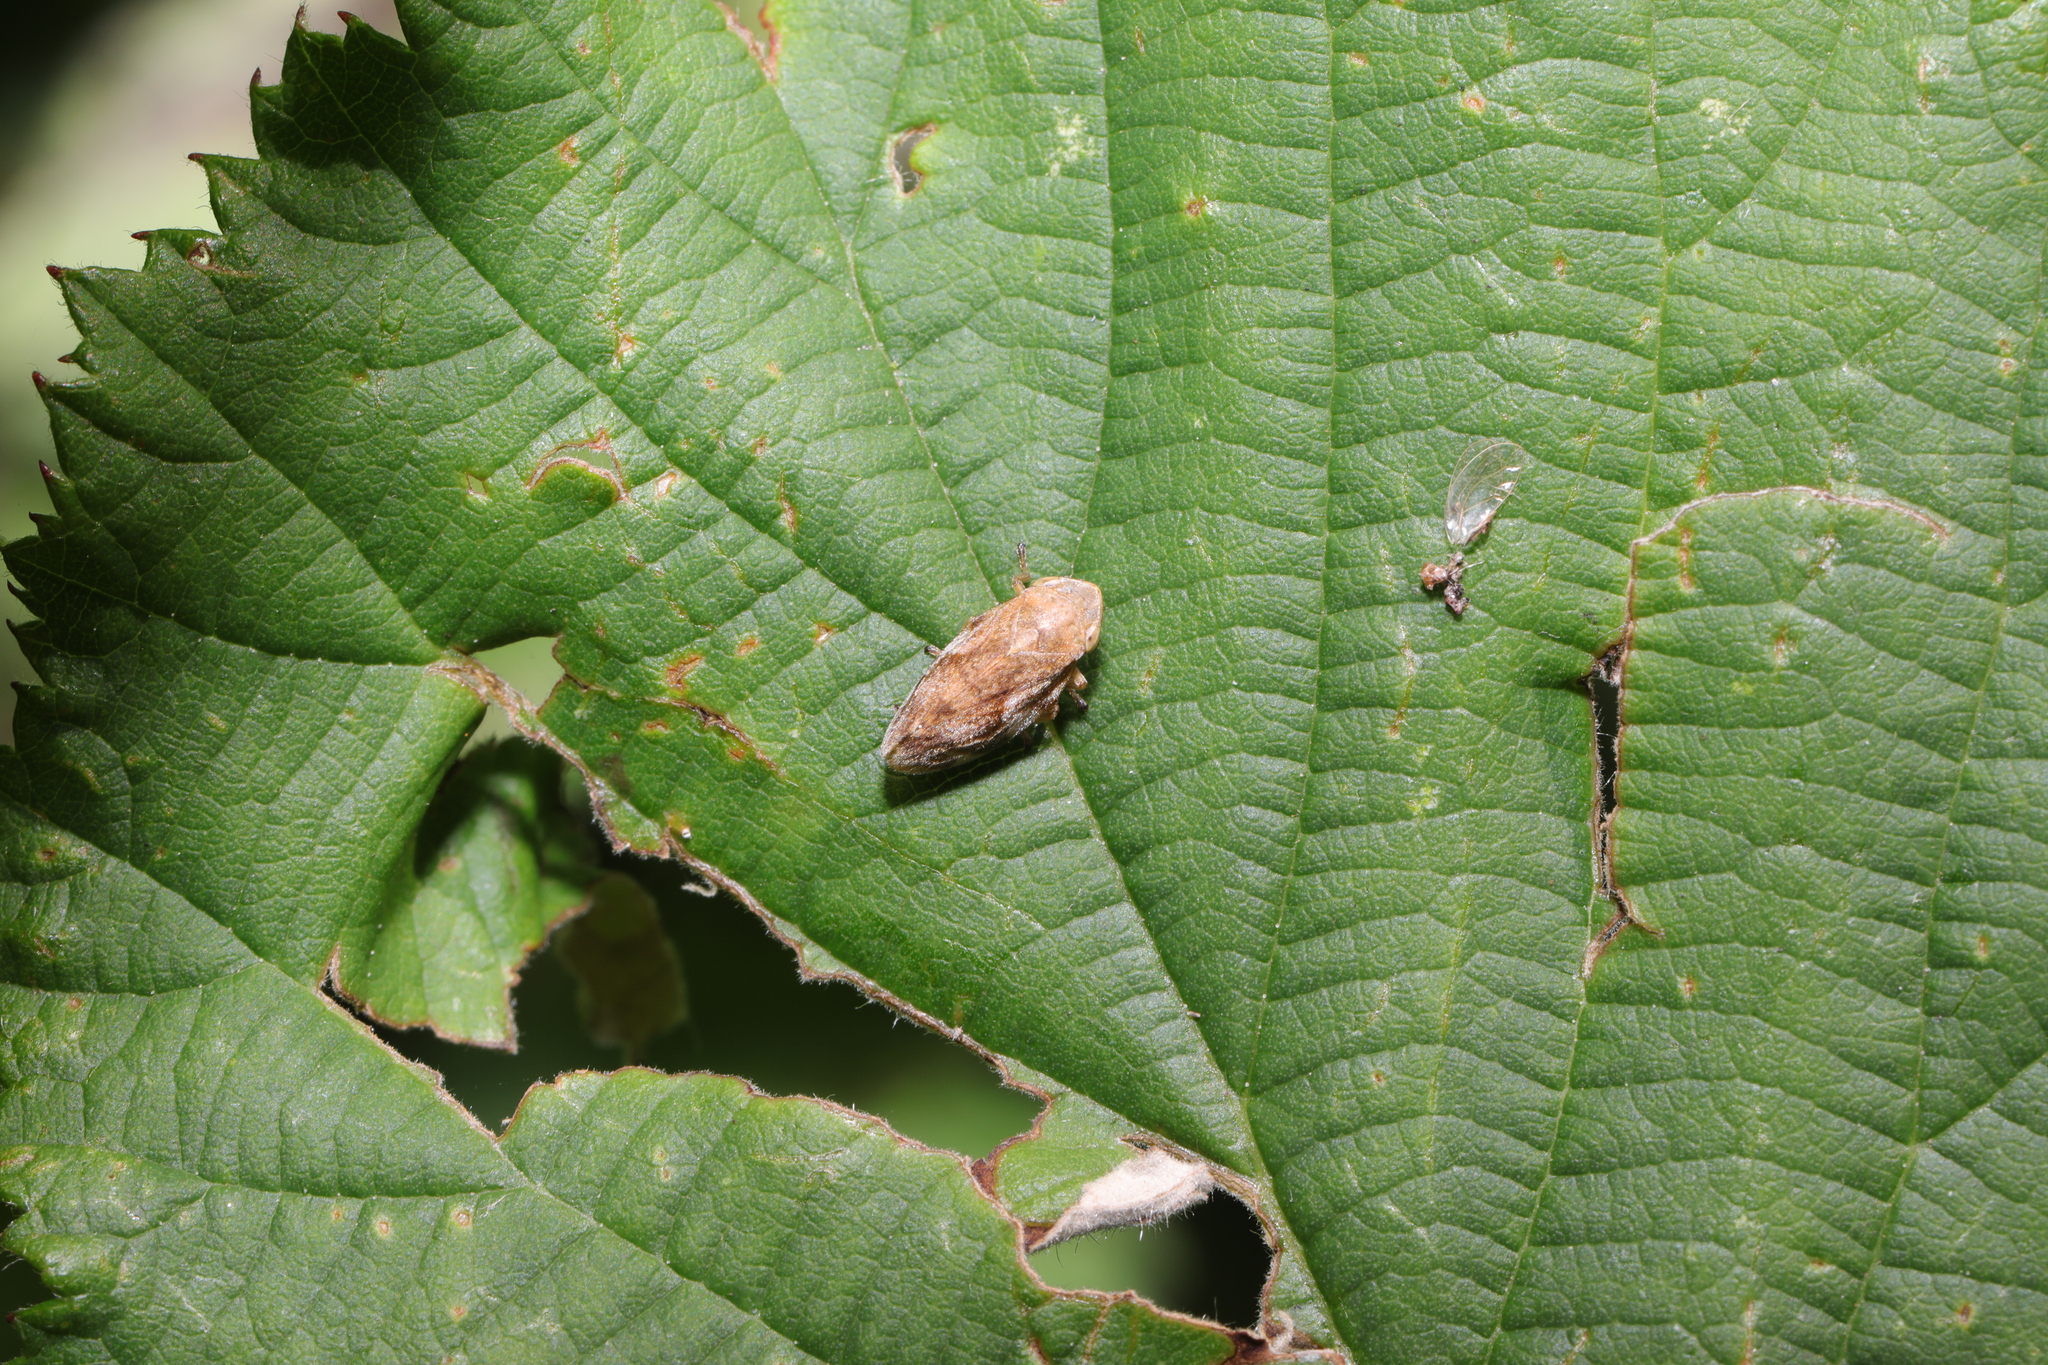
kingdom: Animalia
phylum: Arthropoda
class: Insecta
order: Hemiptera
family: Aphrophoridae
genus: Philaenus
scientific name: Philaenus spumarius
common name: Meadow spittlebug
